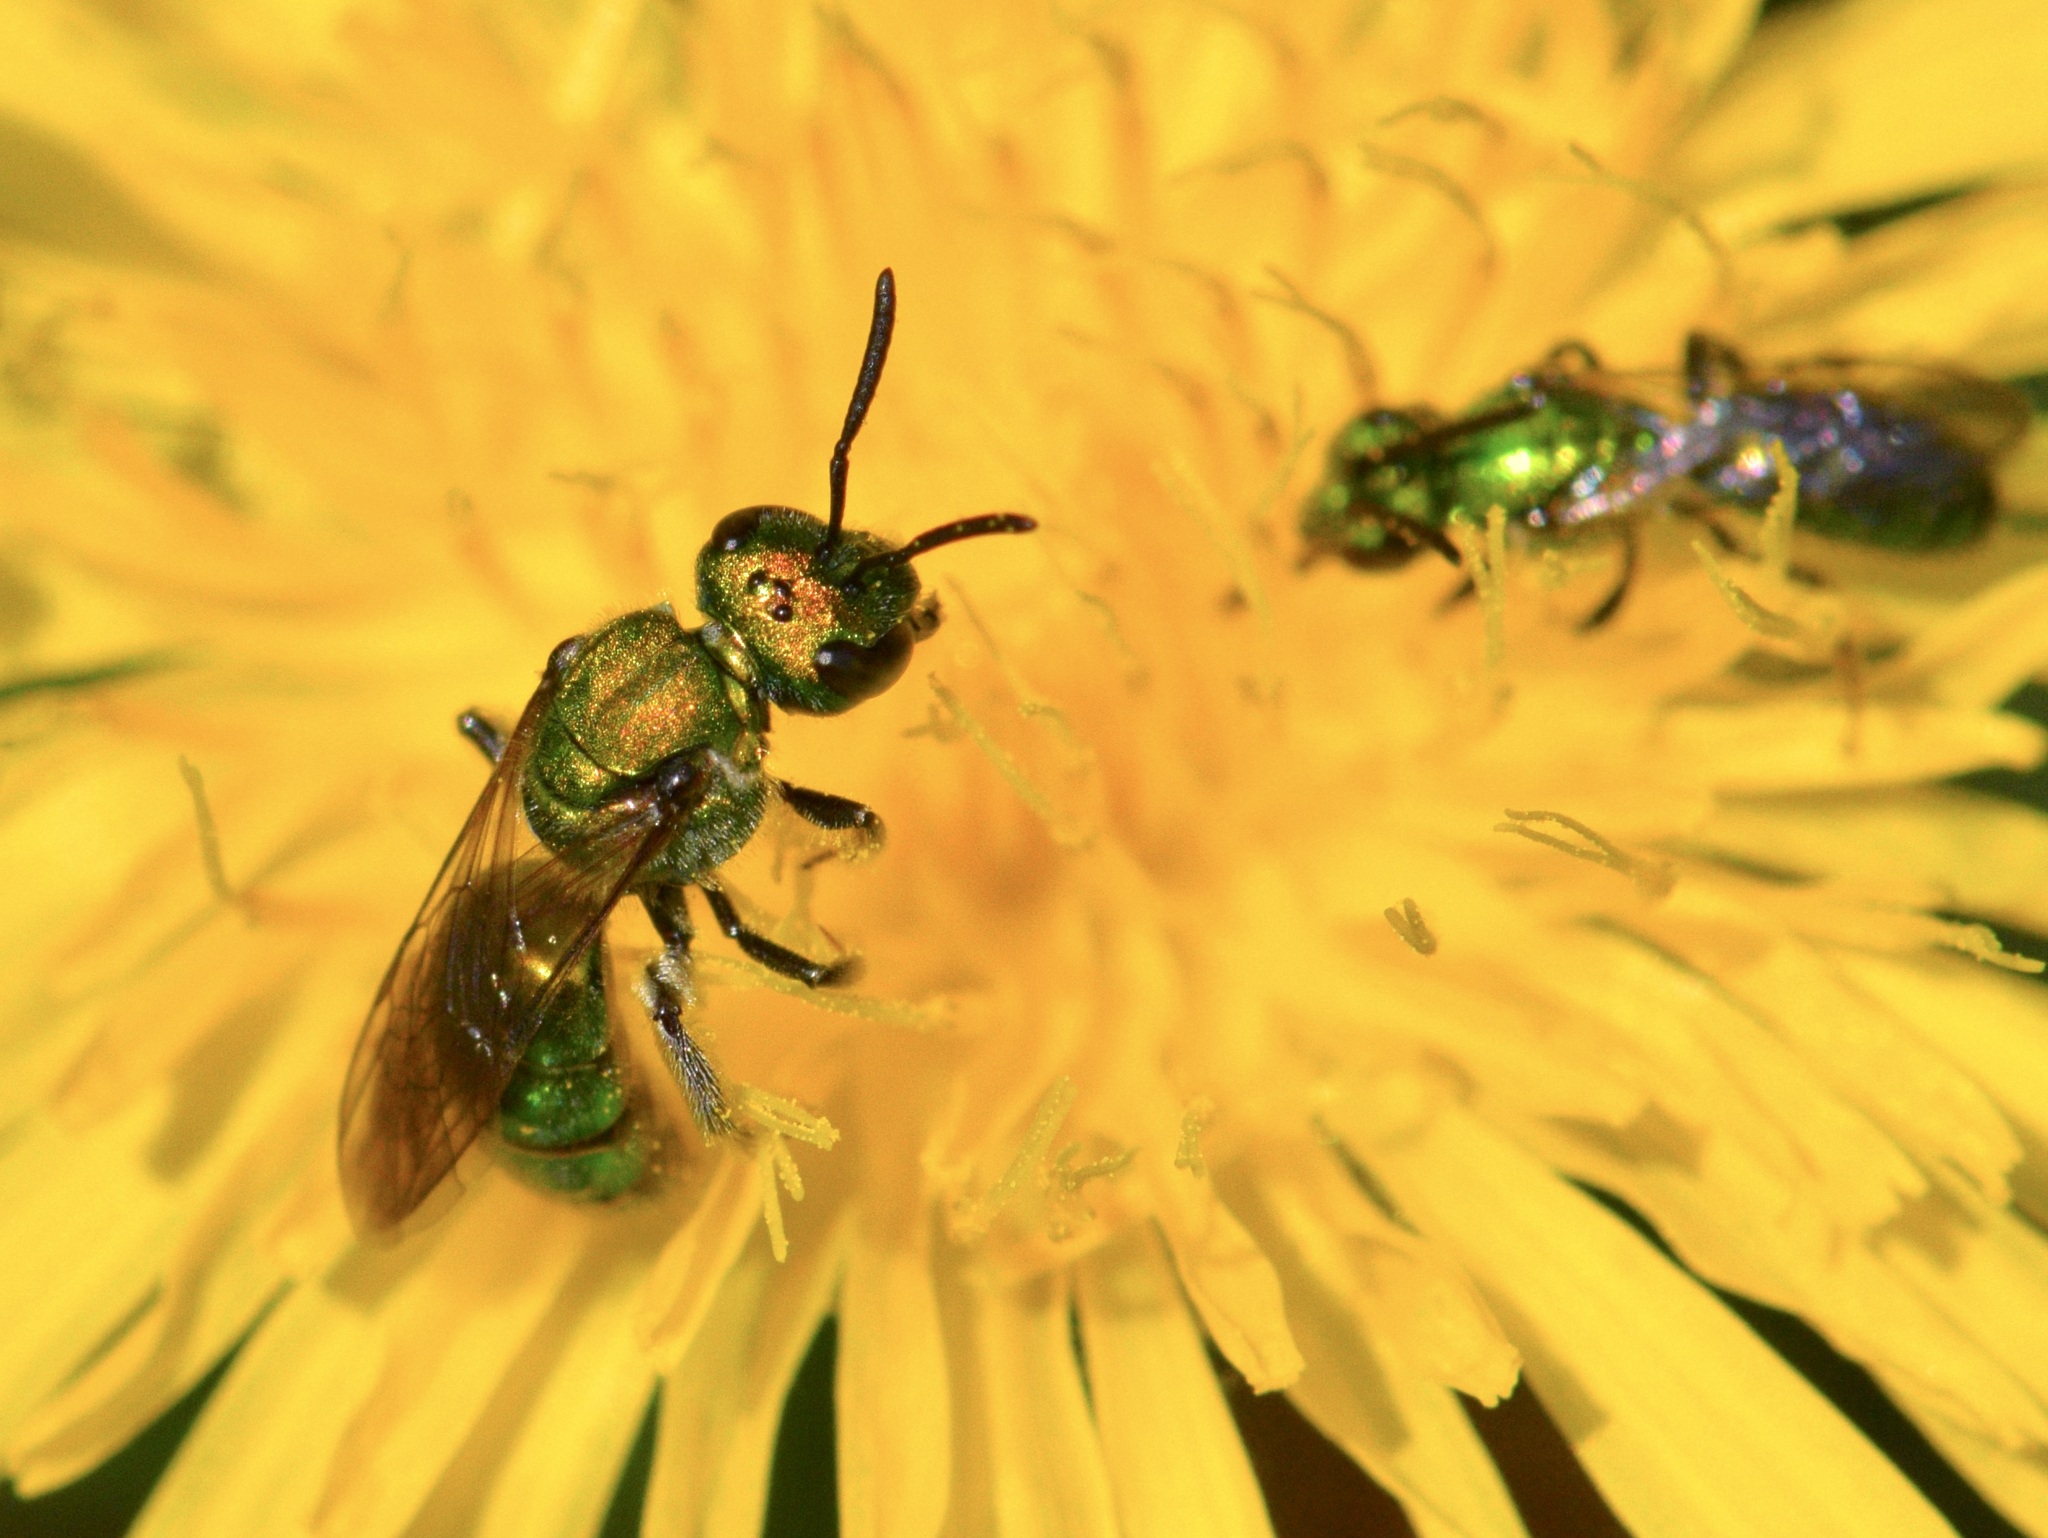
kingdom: Animalia
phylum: Arthropoda
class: Insecta
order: Hymenoptera
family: Halictidae
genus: Augochlora
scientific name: Augochlora pura
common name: Pure green sweat bee
